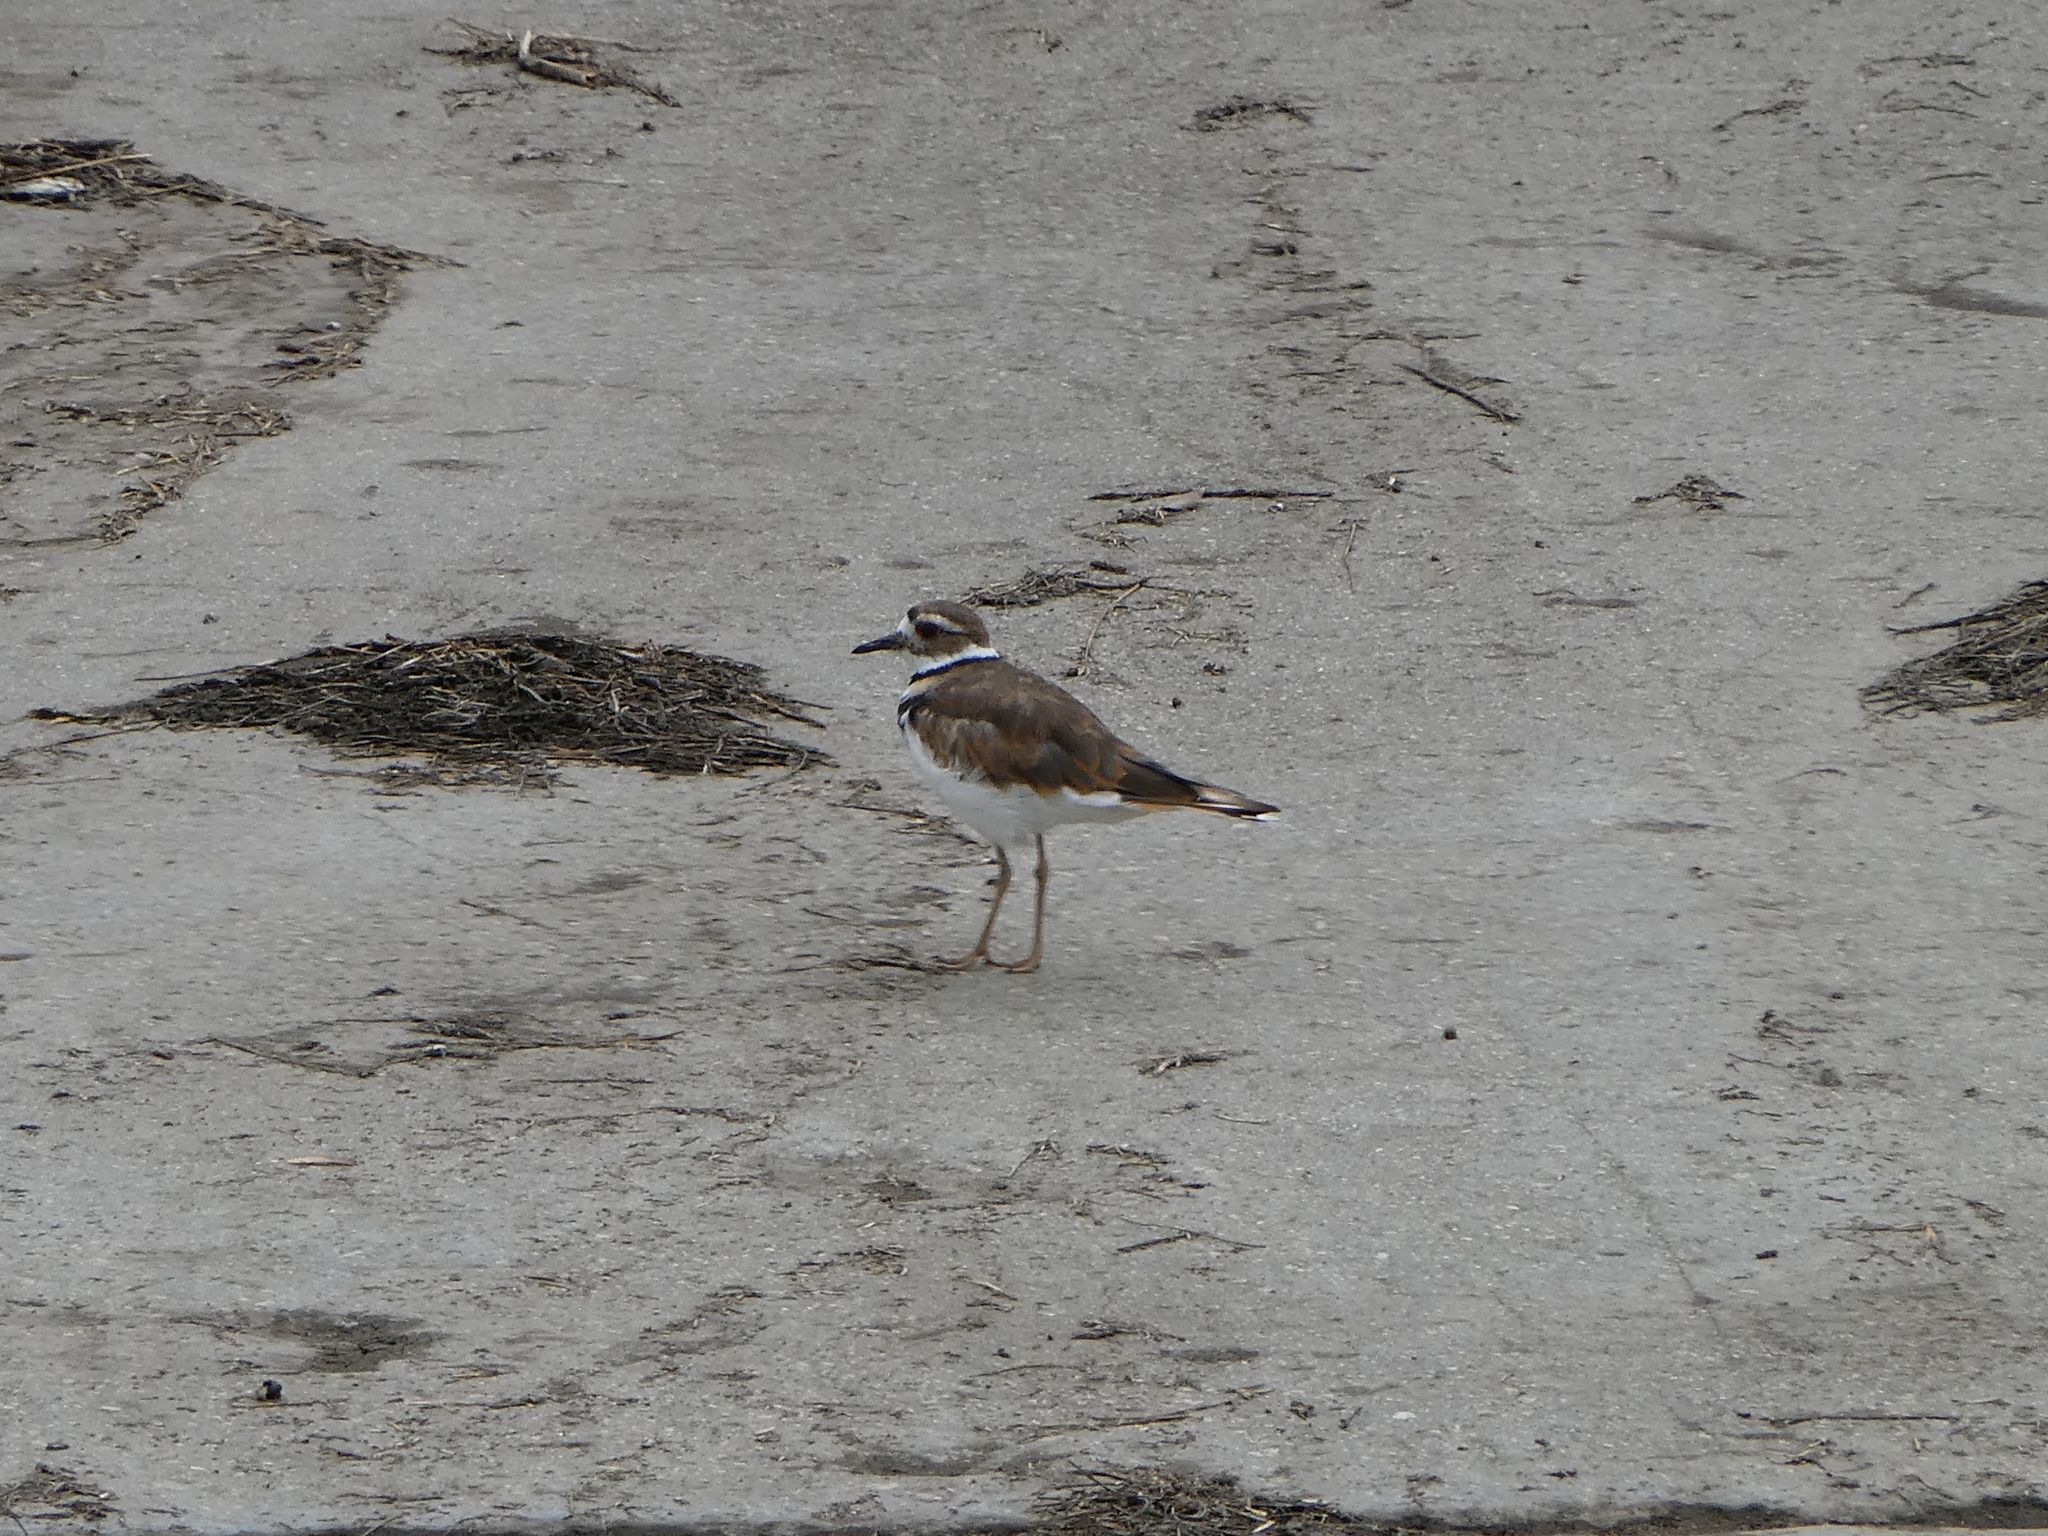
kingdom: Animalia
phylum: Chordata
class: Aves
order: Charadriiformes
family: Charadriidae
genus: Charadrius
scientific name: Charadrius vociferus
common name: Killdeer
